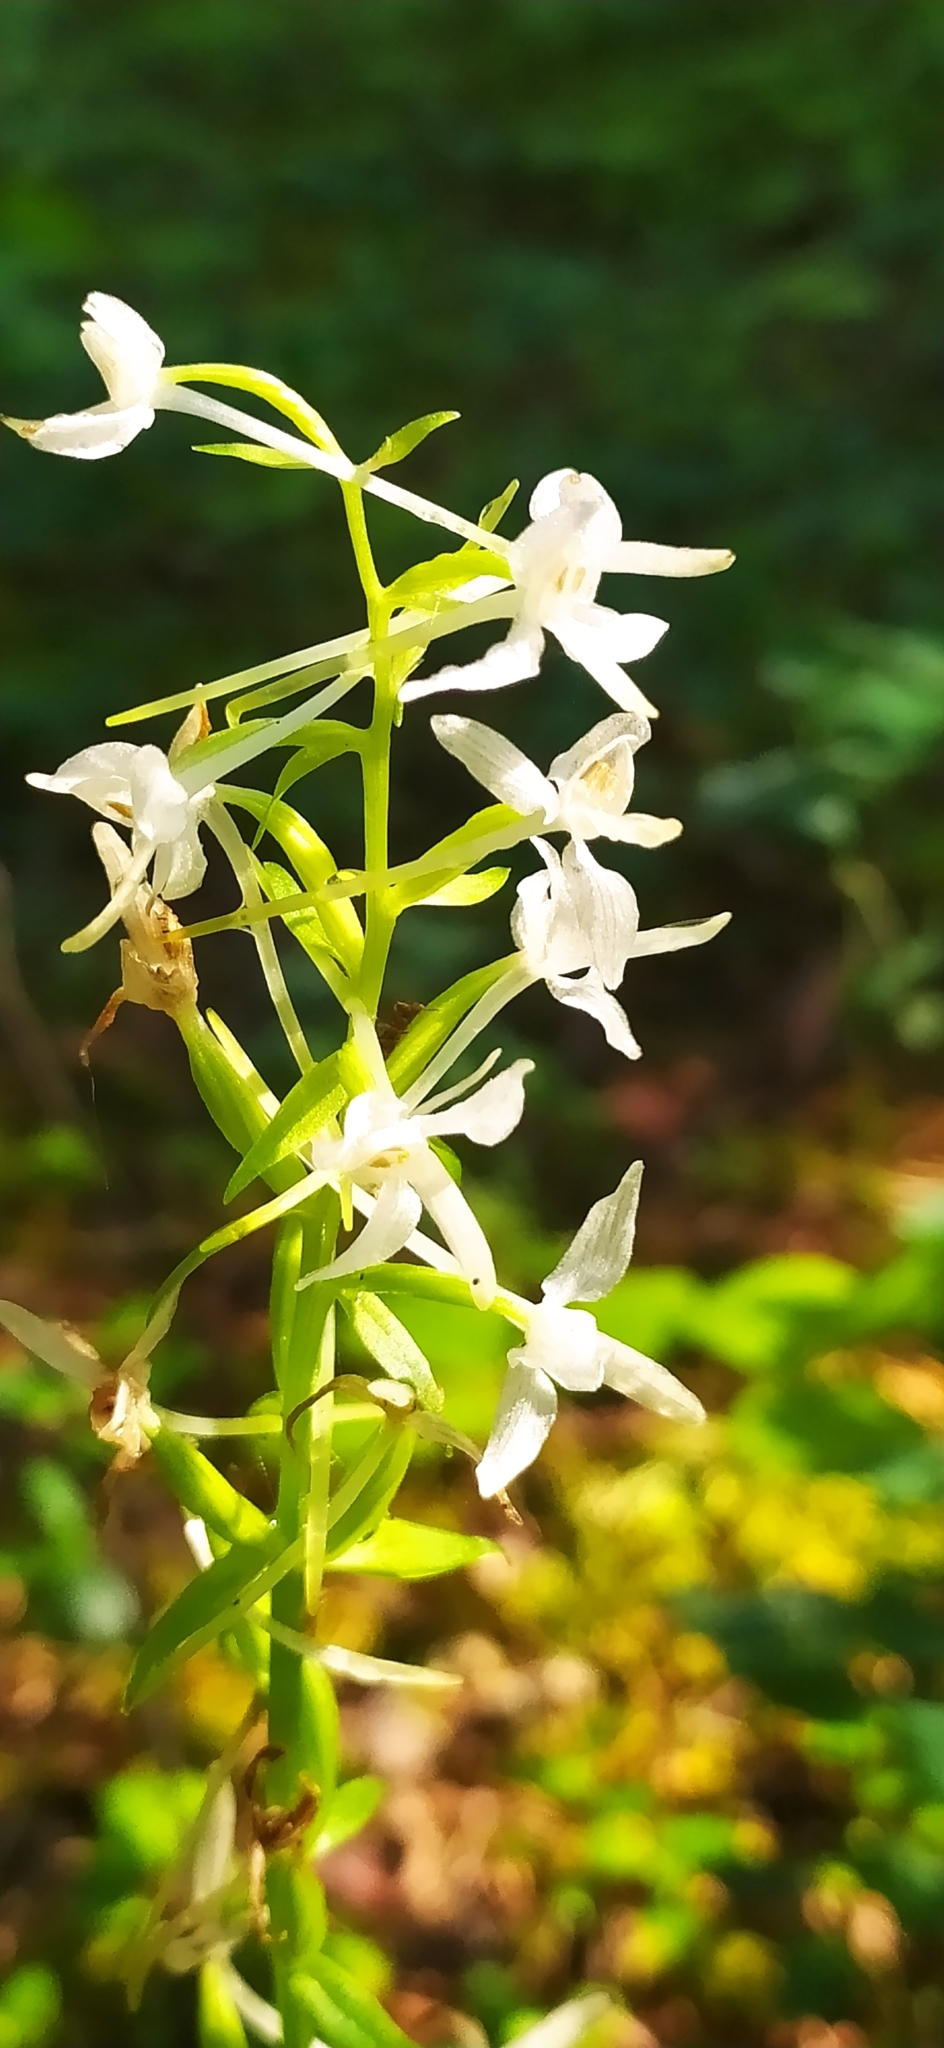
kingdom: Plantae
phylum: Tracheophyta
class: Liliopsida
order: Asparagales
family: Orchidaceae
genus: Platanthera
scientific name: Platanthera bifolia
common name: Lesser butterfly-orchid
